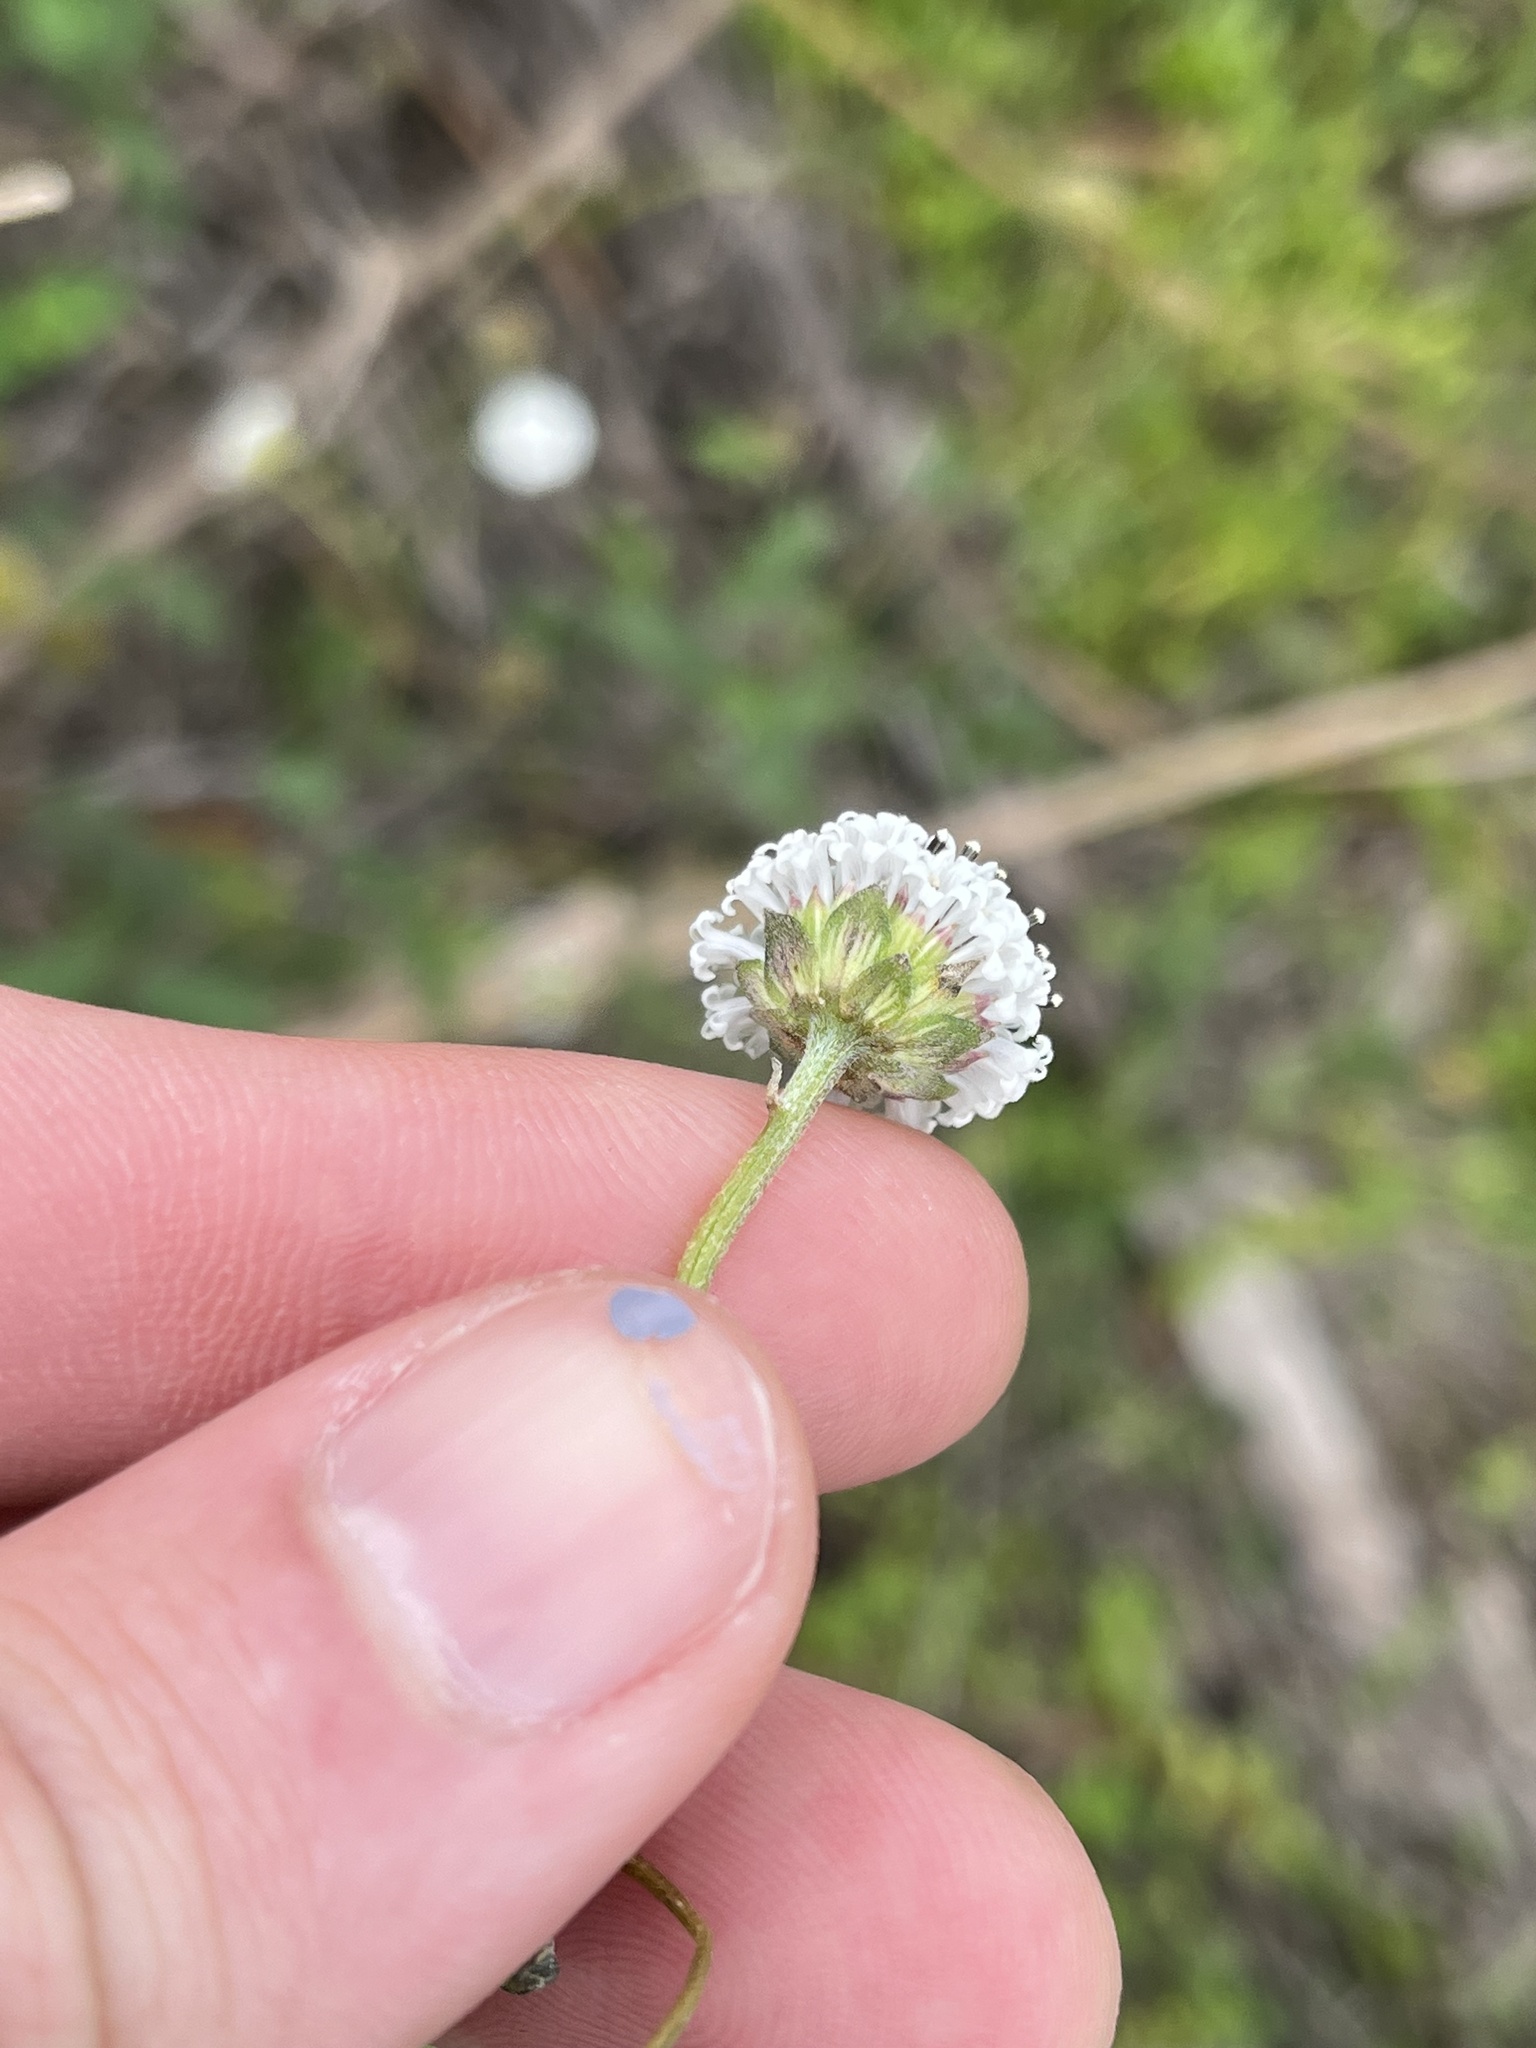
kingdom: Plantae
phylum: Tracheophyta
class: Magnoliopsida
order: Asterales
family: Asteraceae
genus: Melanthera
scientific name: Melanthera nivea
